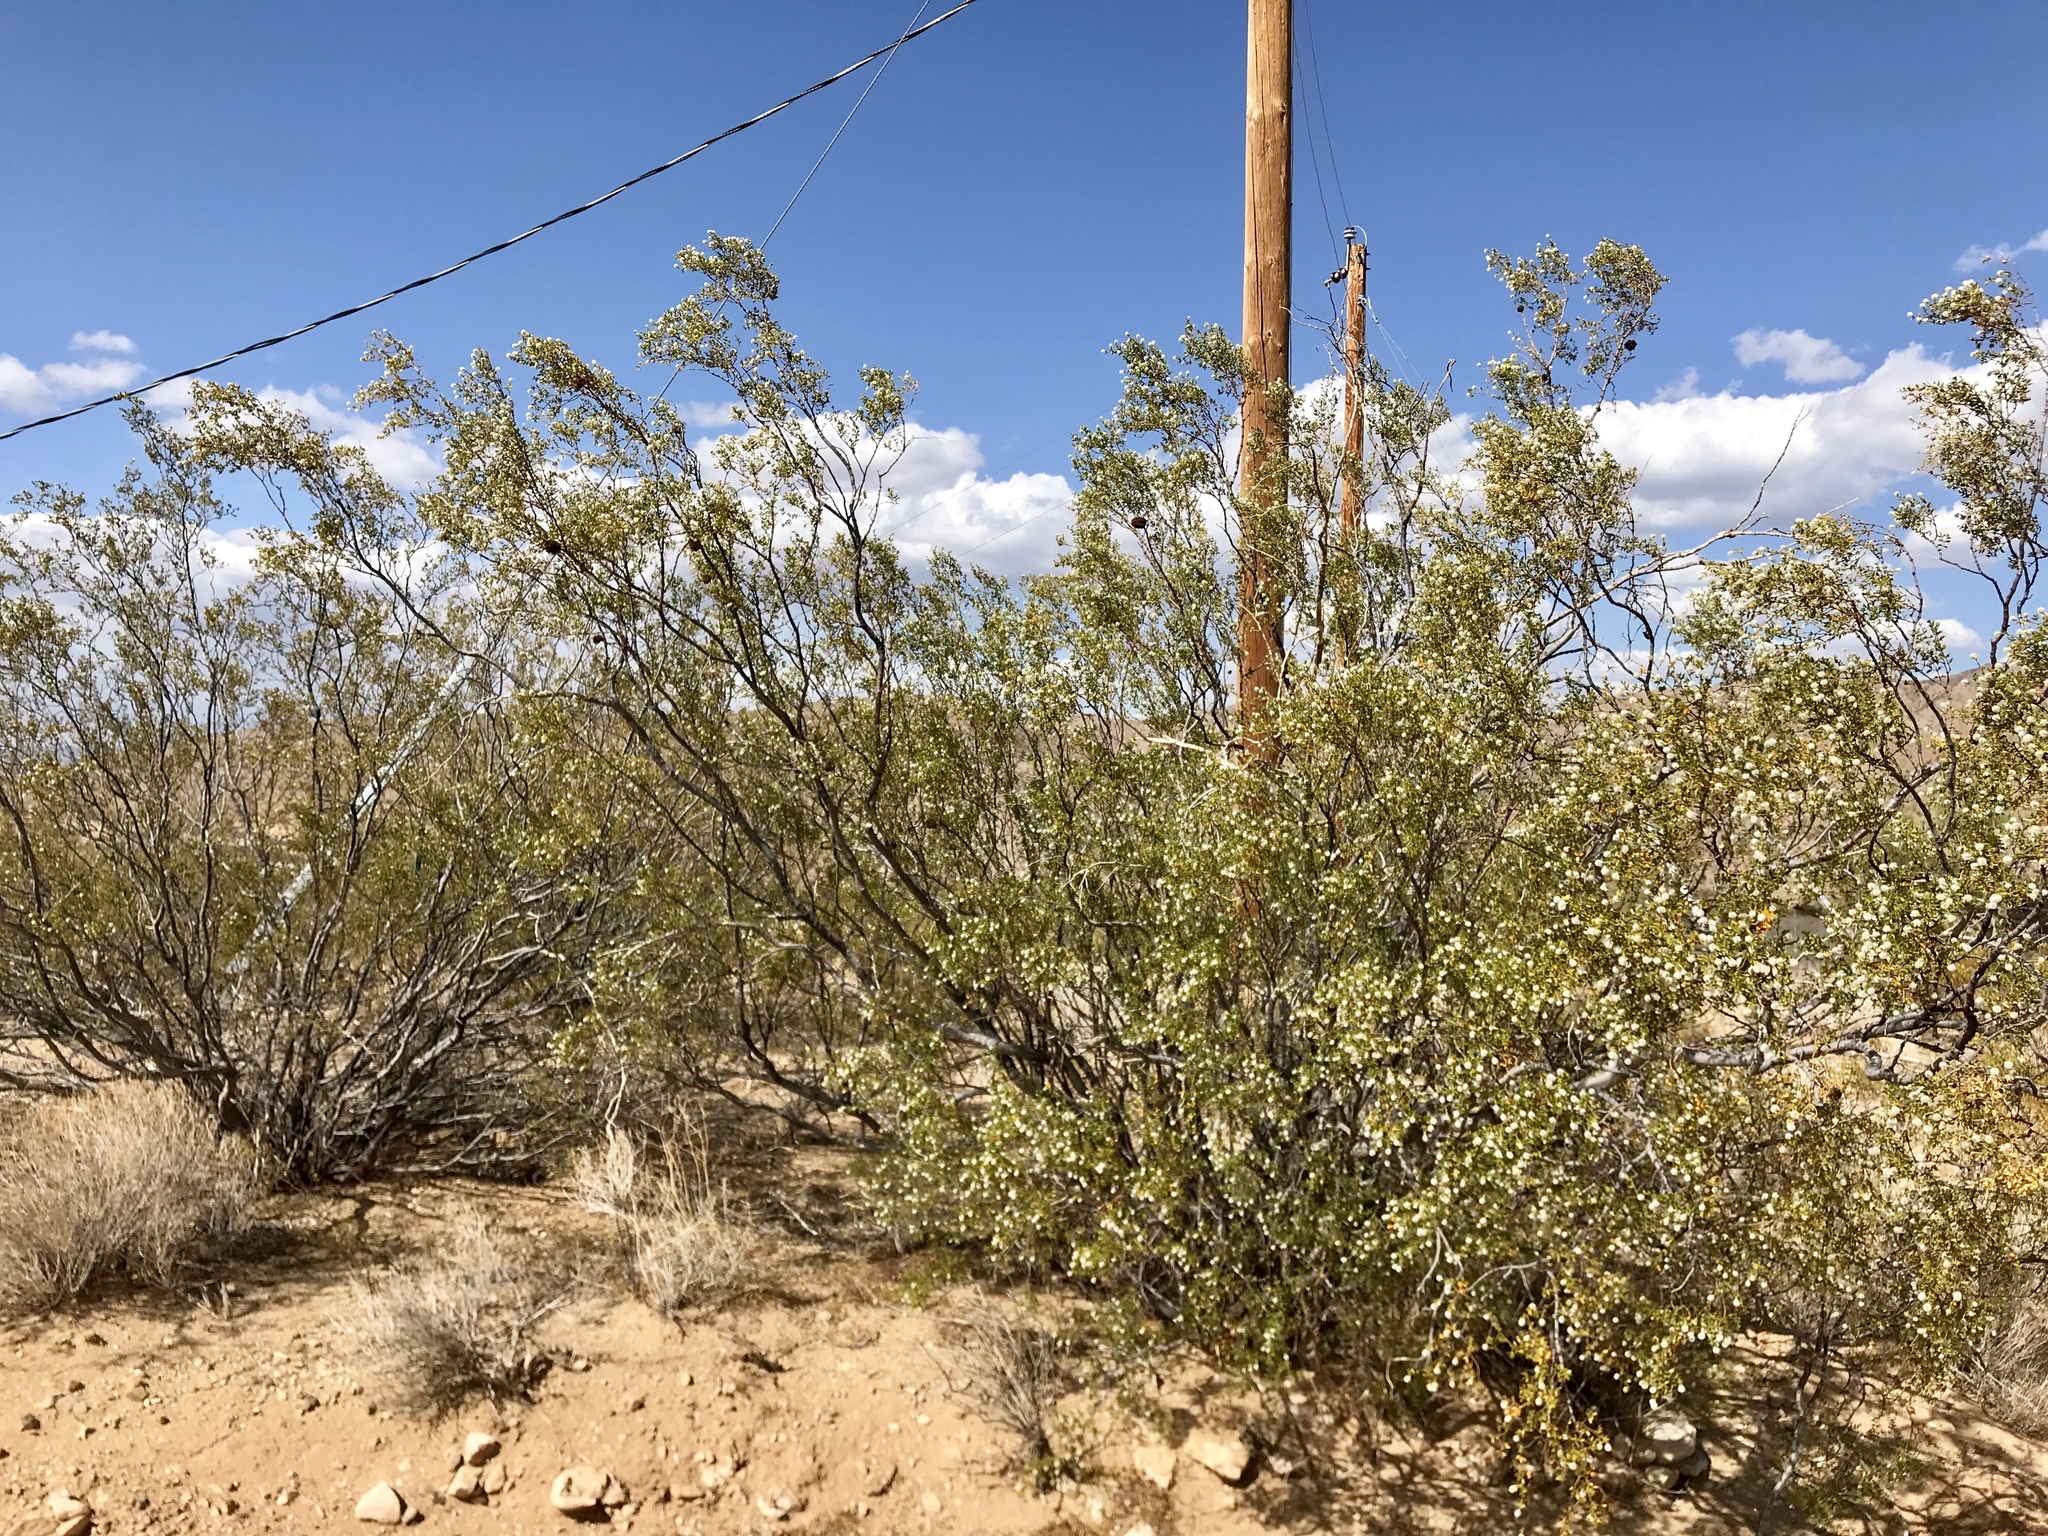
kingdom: Plantae
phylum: Tracheophyta
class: Magnoliopsida
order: Zygophyllales
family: Zygophyllaceae
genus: Larrea
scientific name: Larrea tridentata
